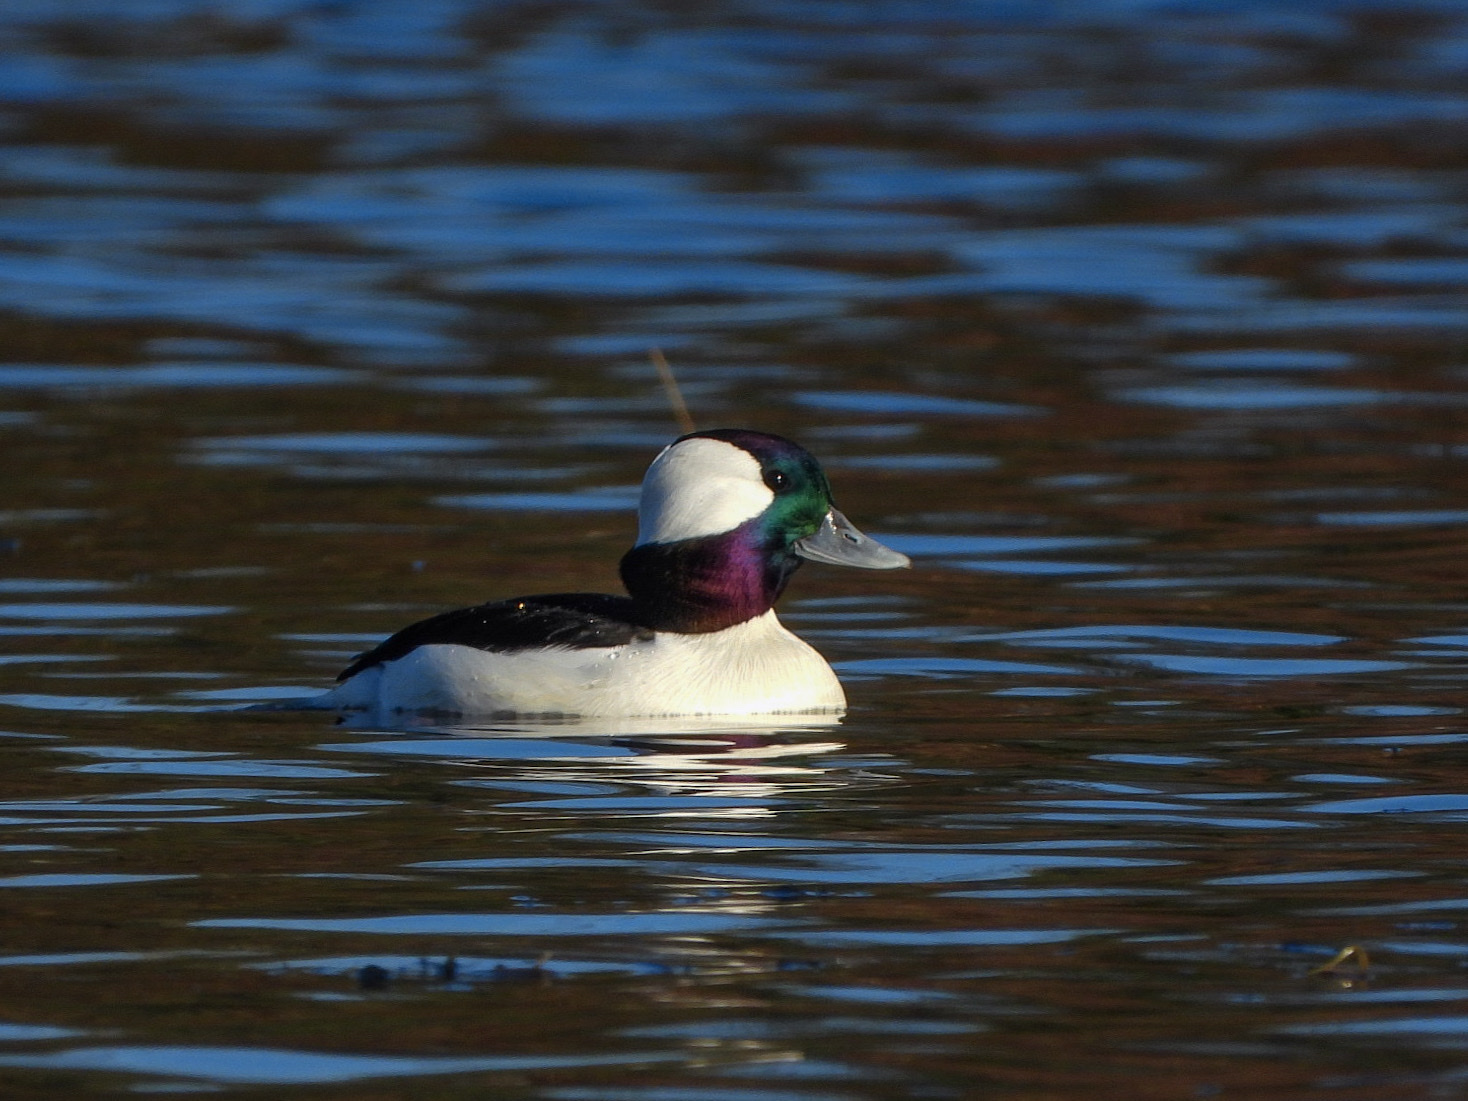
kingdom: Animalia
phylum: Chordata
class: Aves
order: Anseriformes
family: Anatidae
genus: Bucephala
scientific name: Bucephala albeola
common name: Bufflehead
